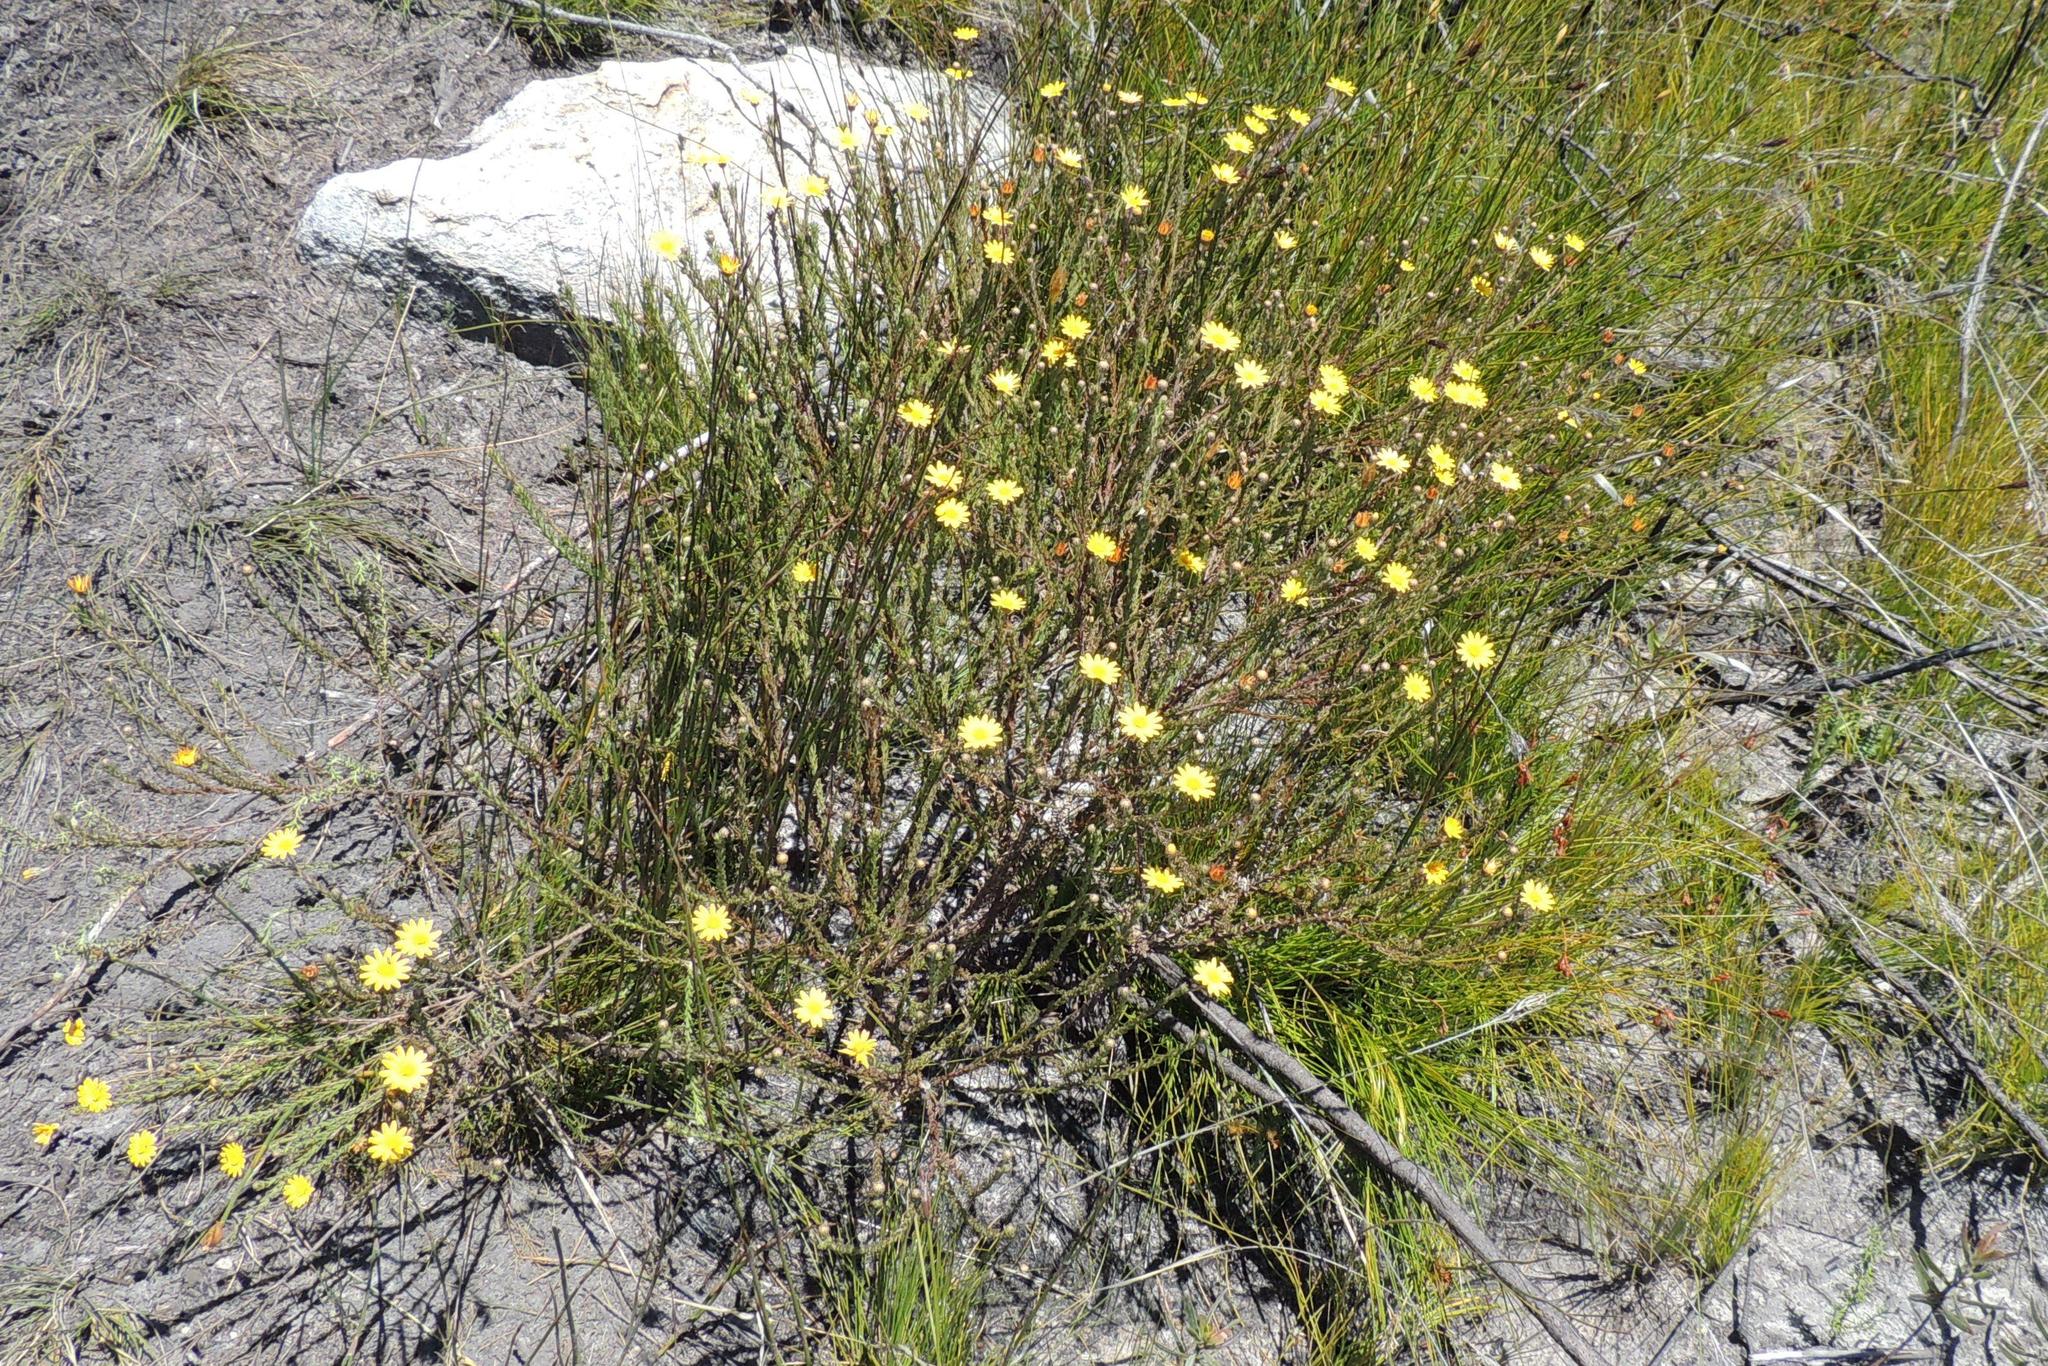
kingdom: Plantae
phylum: Tracheophyta
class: Magnoliopsida
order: Asterales
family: Asteraceae
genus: Ursinia
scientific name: Ursinia trifida
